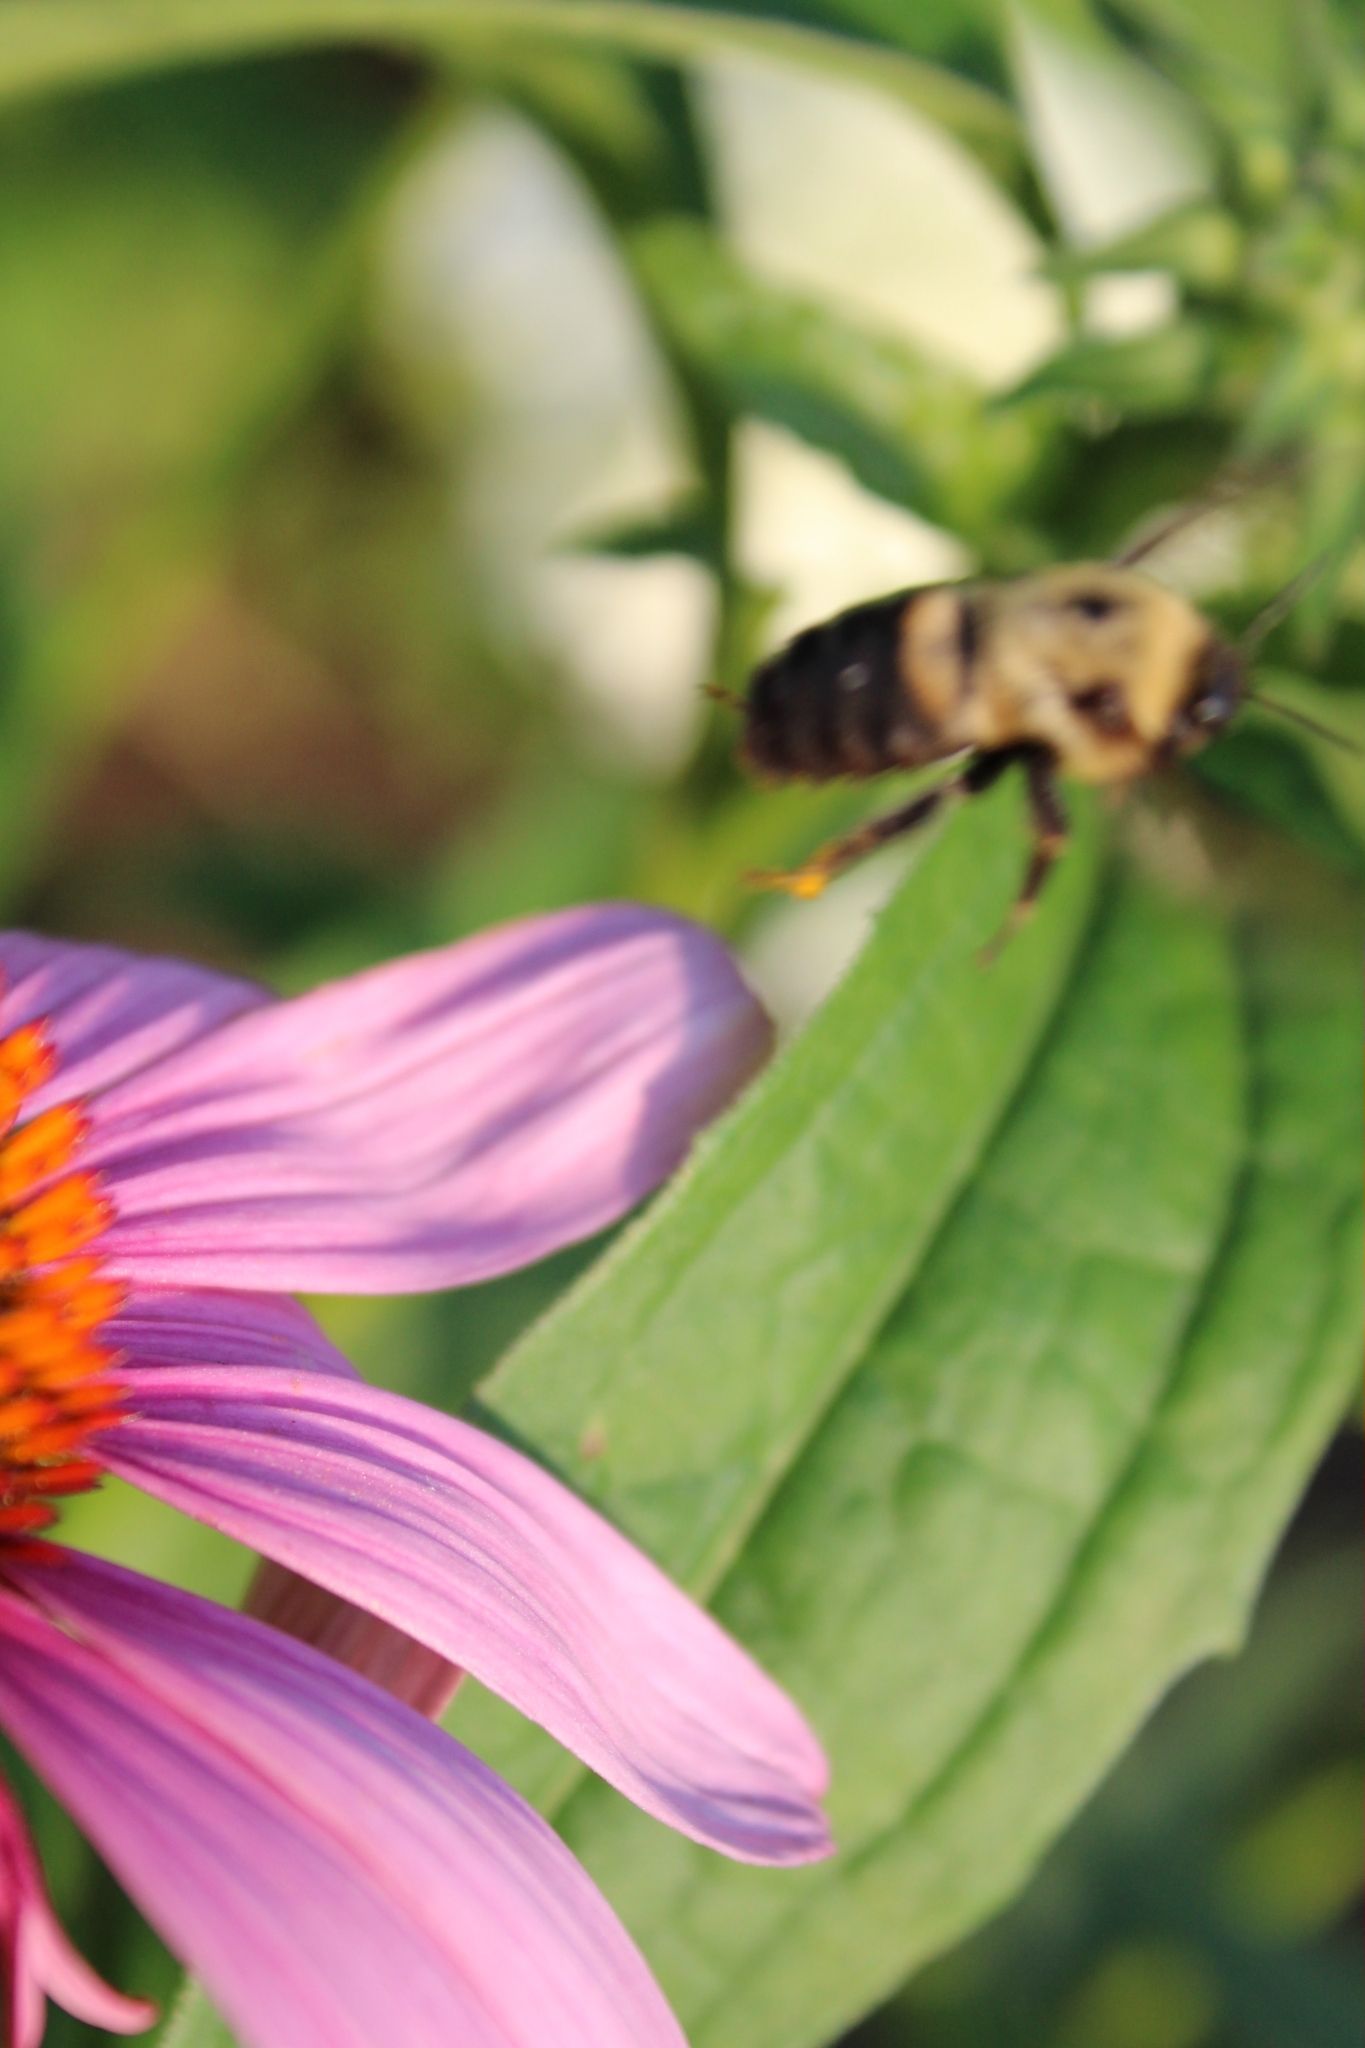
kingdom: Animalia
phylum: Arthropoda
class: Insecta
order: Hymenoptera
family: Apidae
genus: Bombus
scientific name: Bombus griseocollis
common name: Brown-belted bumble bee
